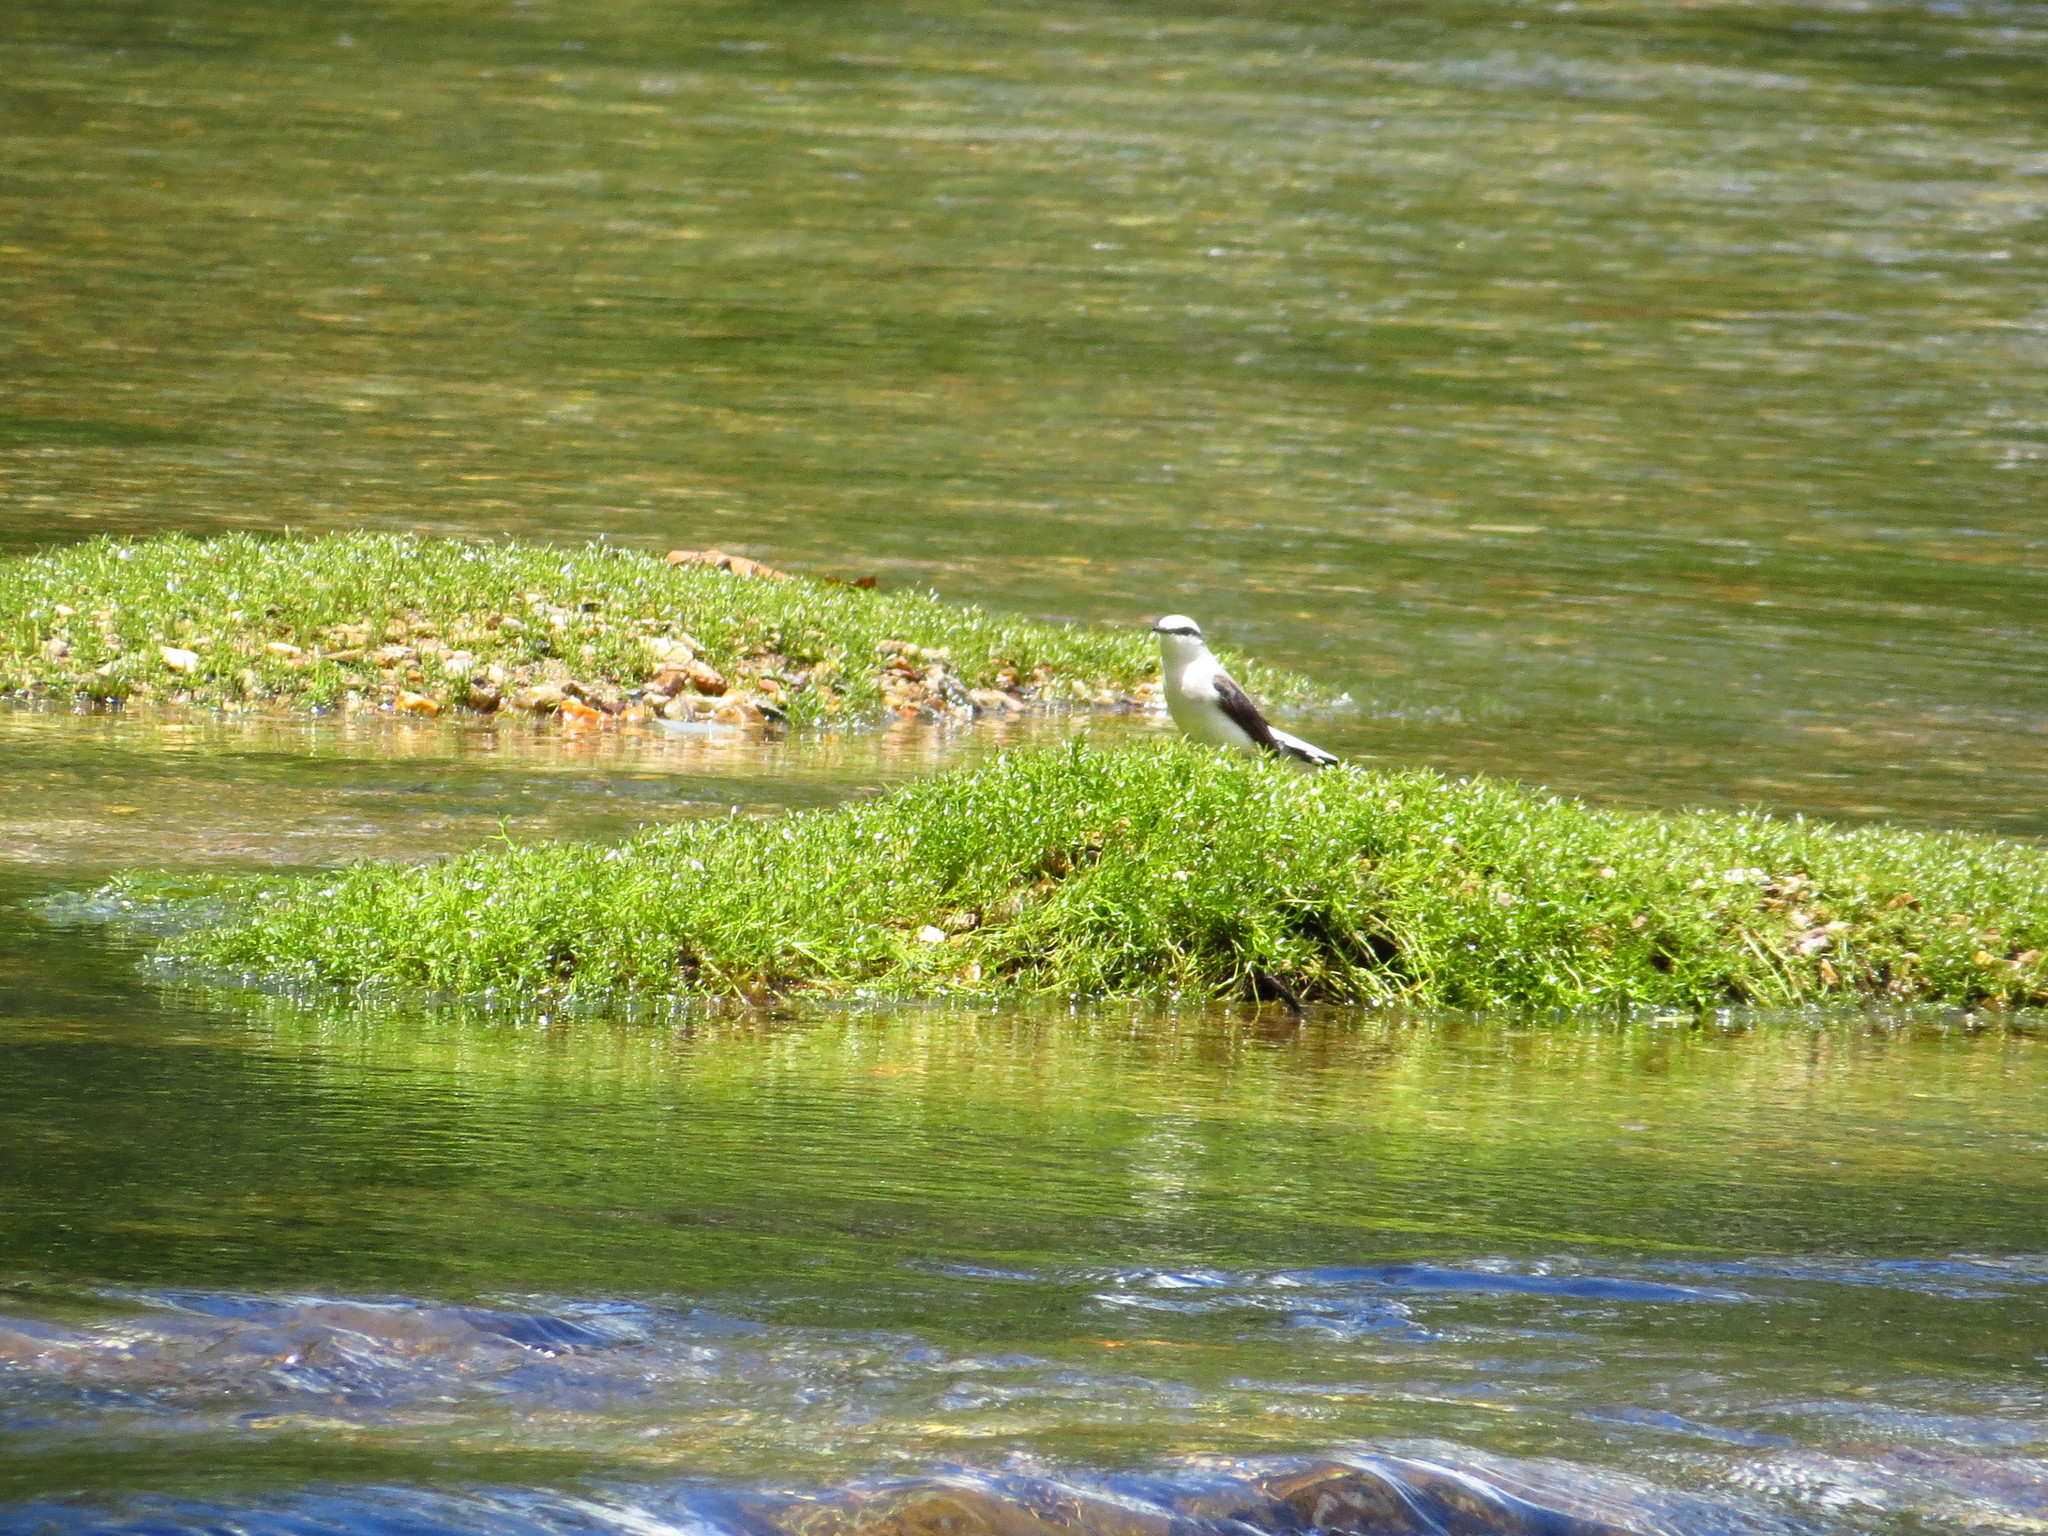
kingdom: Animalia
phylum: Chordata
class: Aves
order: Passeriformes
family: Tyrannidae
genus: Fluvicola
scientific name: Fluvicola nengeta
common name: Masked water tyrant
